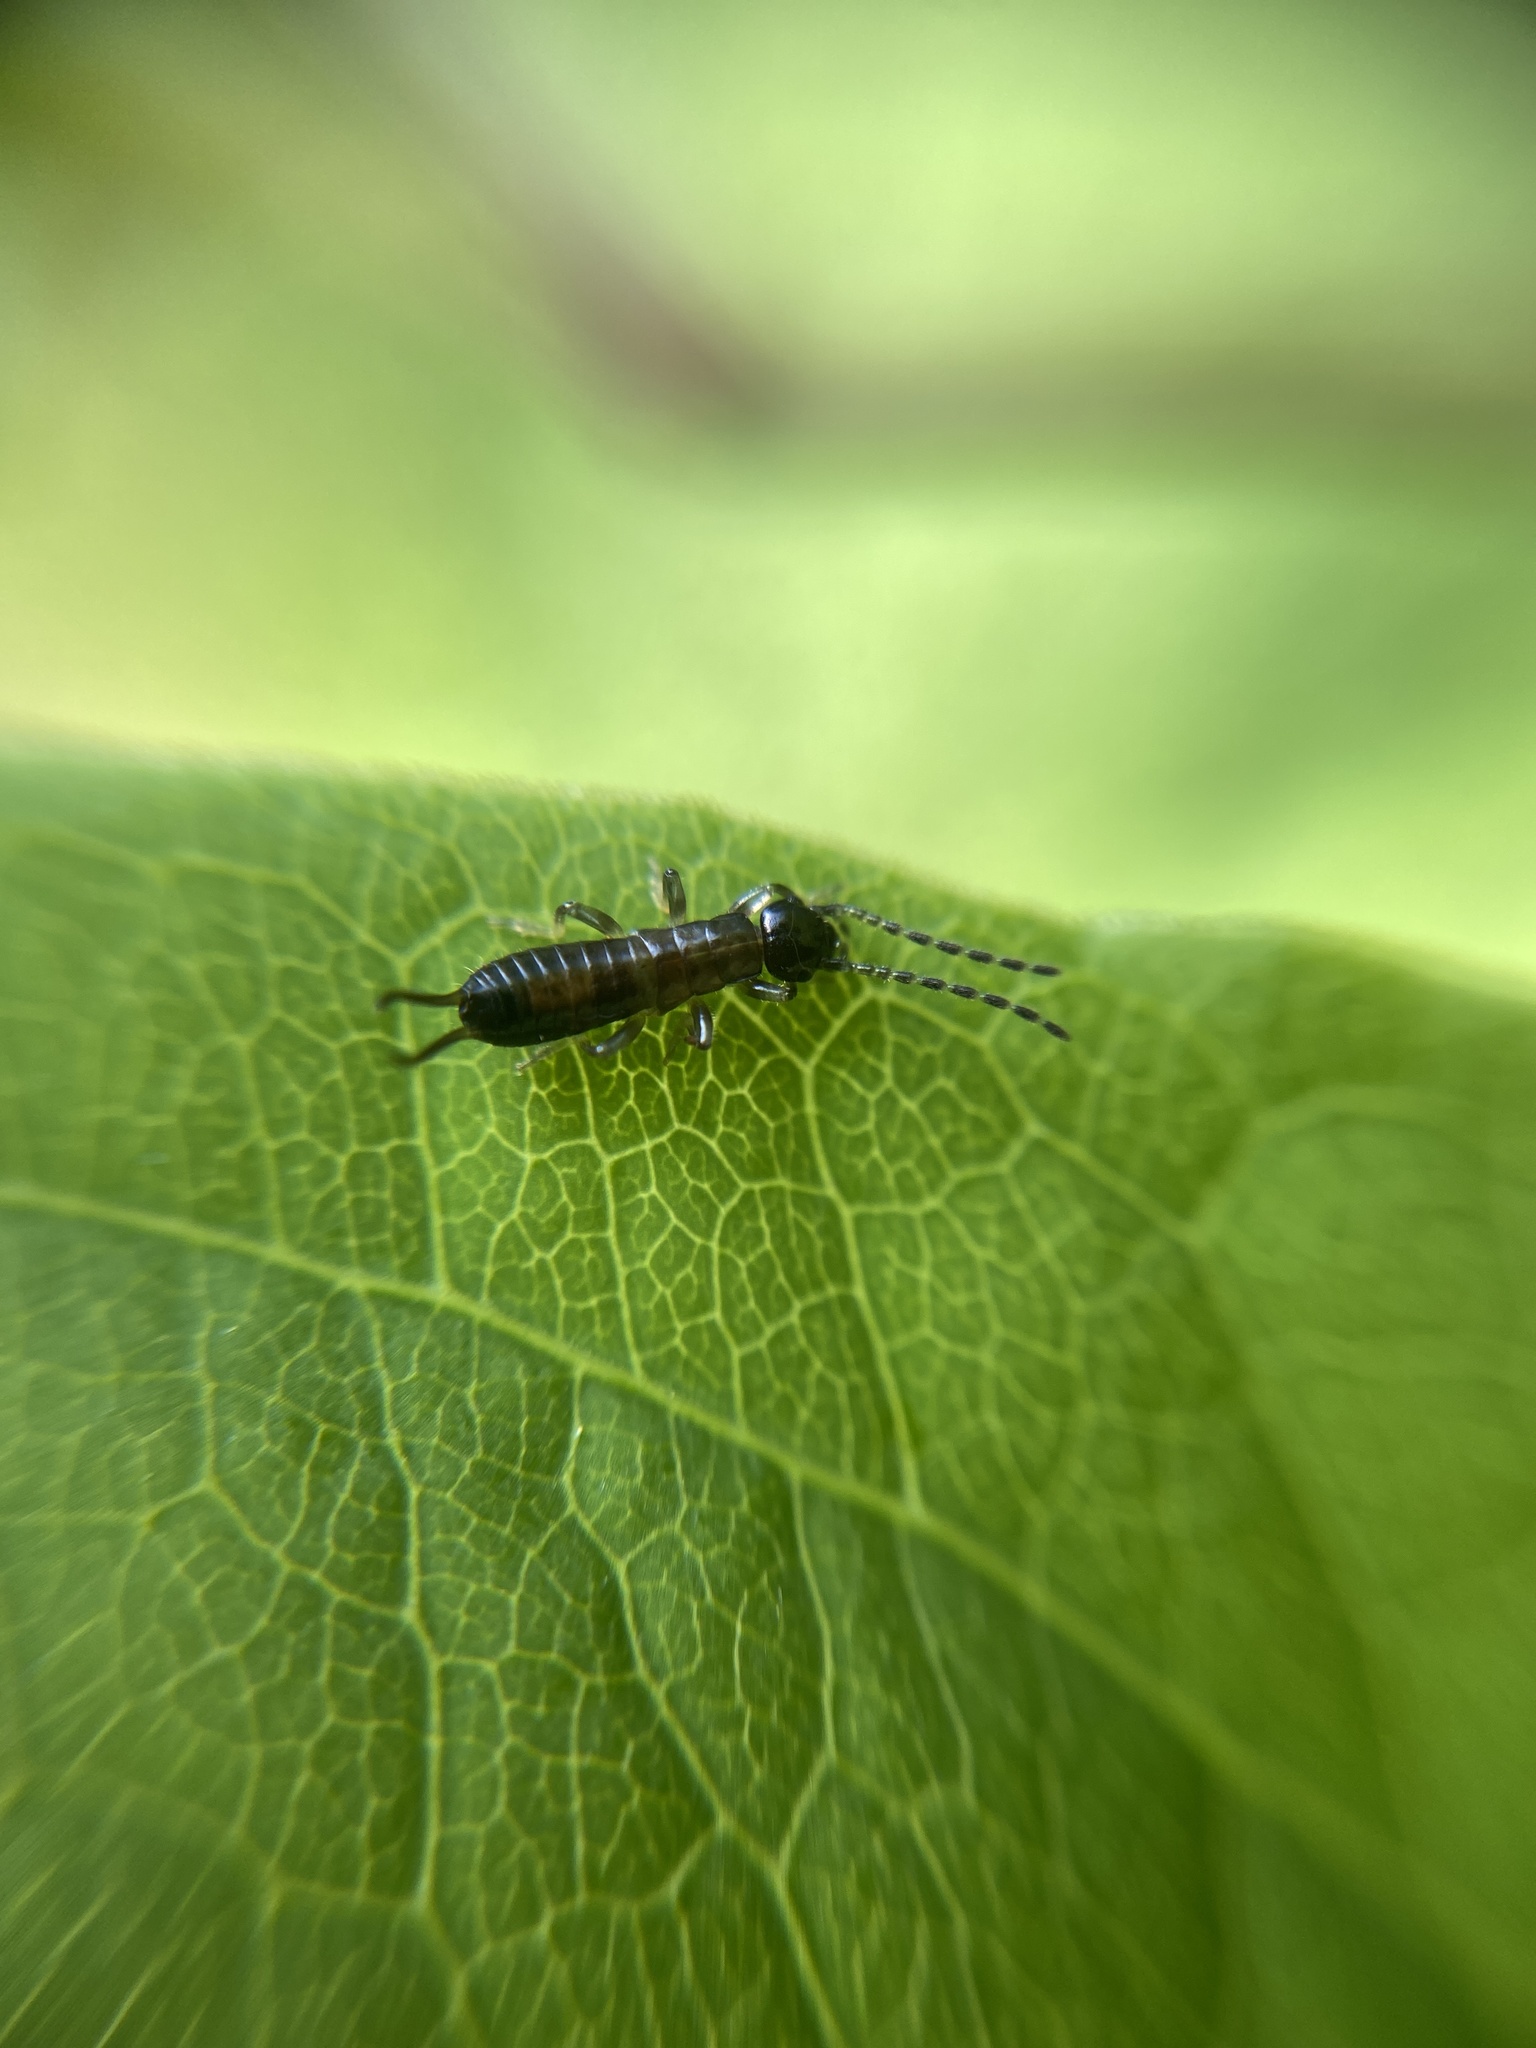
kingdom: Animalia
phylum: Arthropoda
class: Insecta
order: Dermaptera
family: Forficulidae
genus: Apterygida
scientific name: Apterygida albipennis
